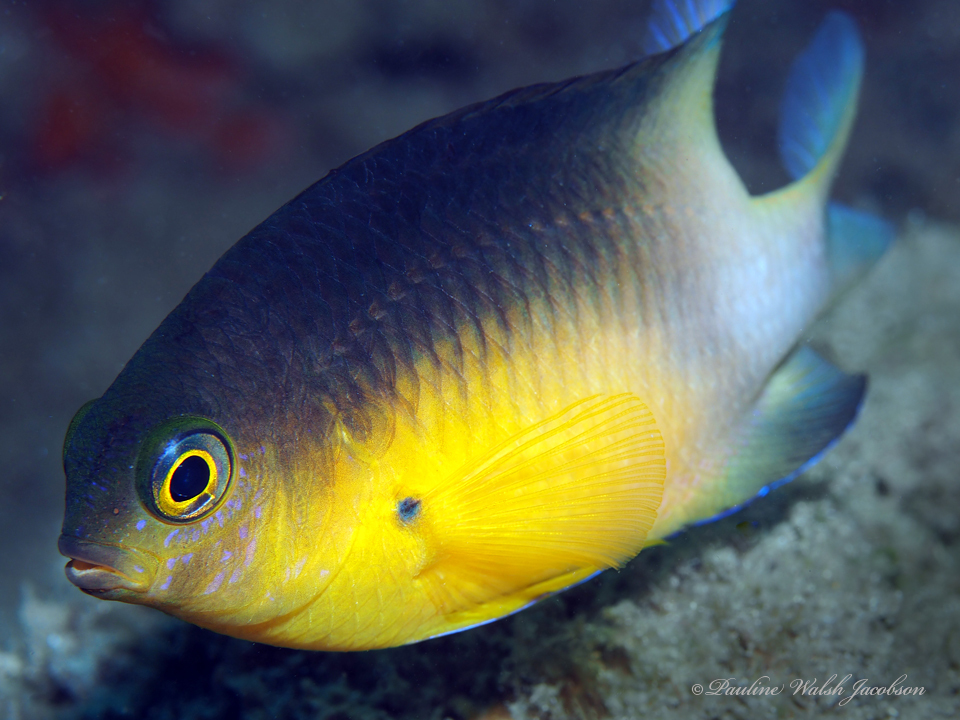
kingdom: Animalia
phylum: Chordata
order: Perciformes
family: Pomacentridae
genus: Stegastes
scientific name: Stegastes partitus
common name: Bicolor damselfish
